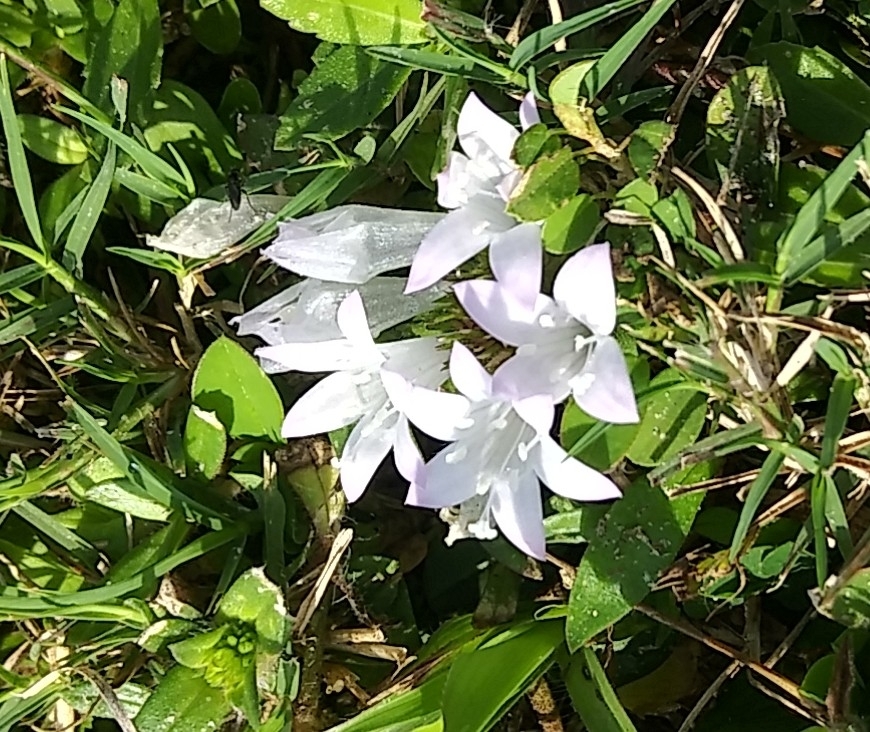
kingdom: Plantae
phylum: Tracheophyta
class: Magnoliopsida
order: Gentianales
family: Rubiaceae
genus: Richardia
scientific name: Richardia grandiflora
